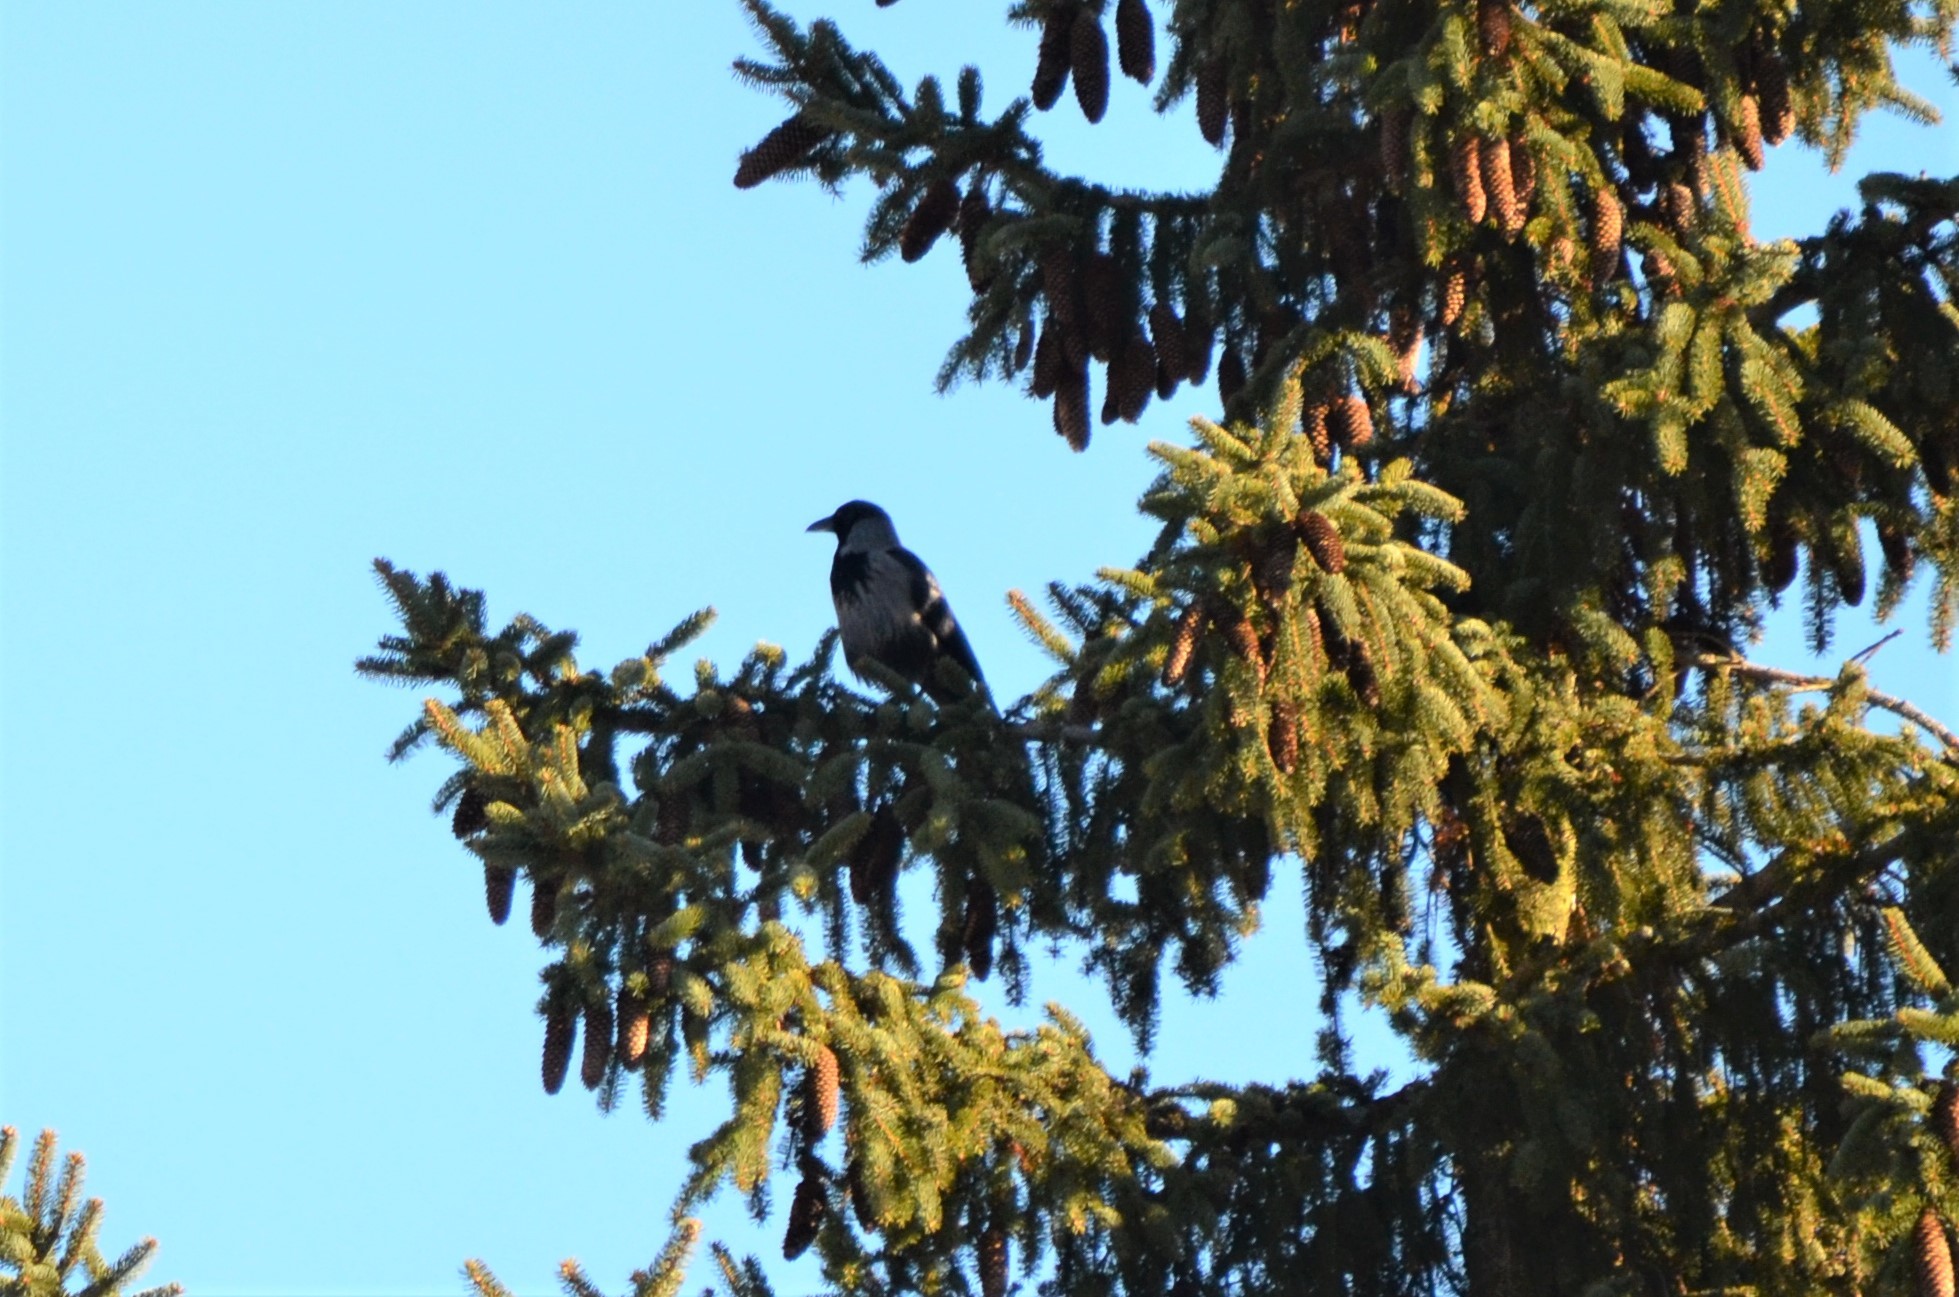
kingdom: Animalia
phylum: Chordata
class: Aves
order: Passeriformes
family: Corvidae
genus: Corvus
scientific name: Corvus cornix
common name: Hooded crow
